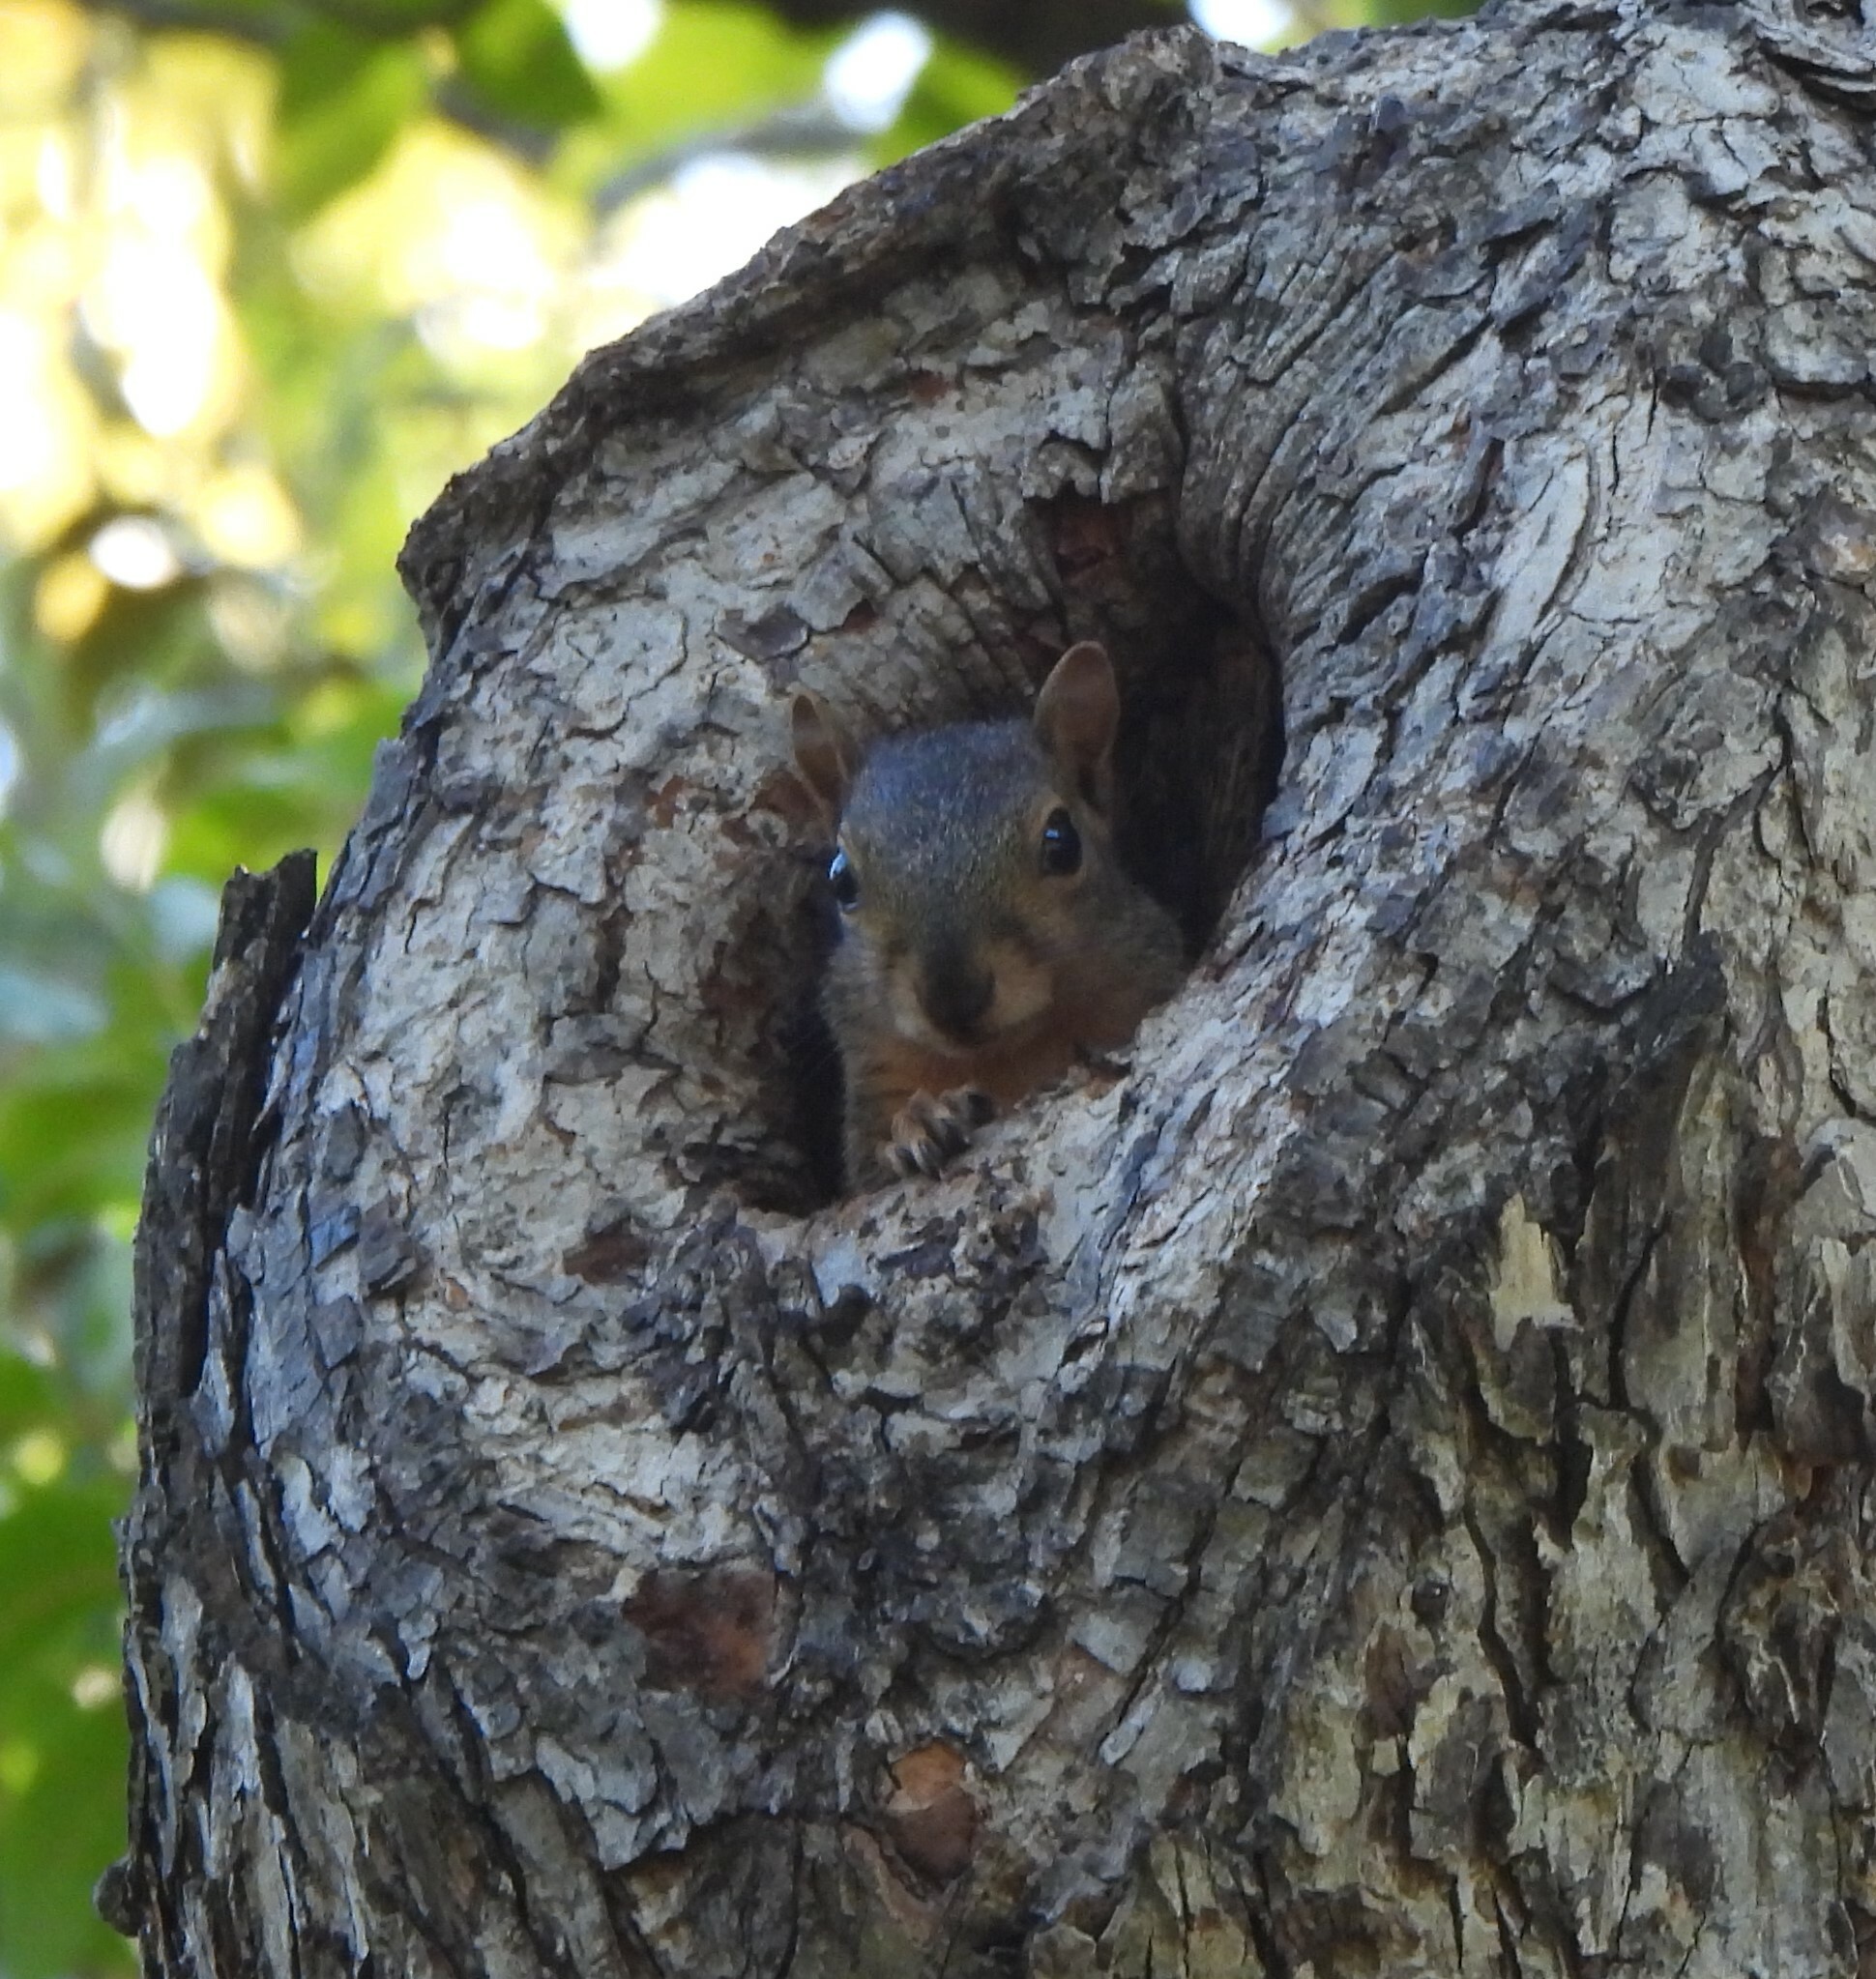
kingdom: Animalia
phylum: Chordata
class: Mammalia
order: Rodentia
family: Sciuridae
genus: Sciurus
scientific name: Sciurus niger
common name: Fox squirrel
